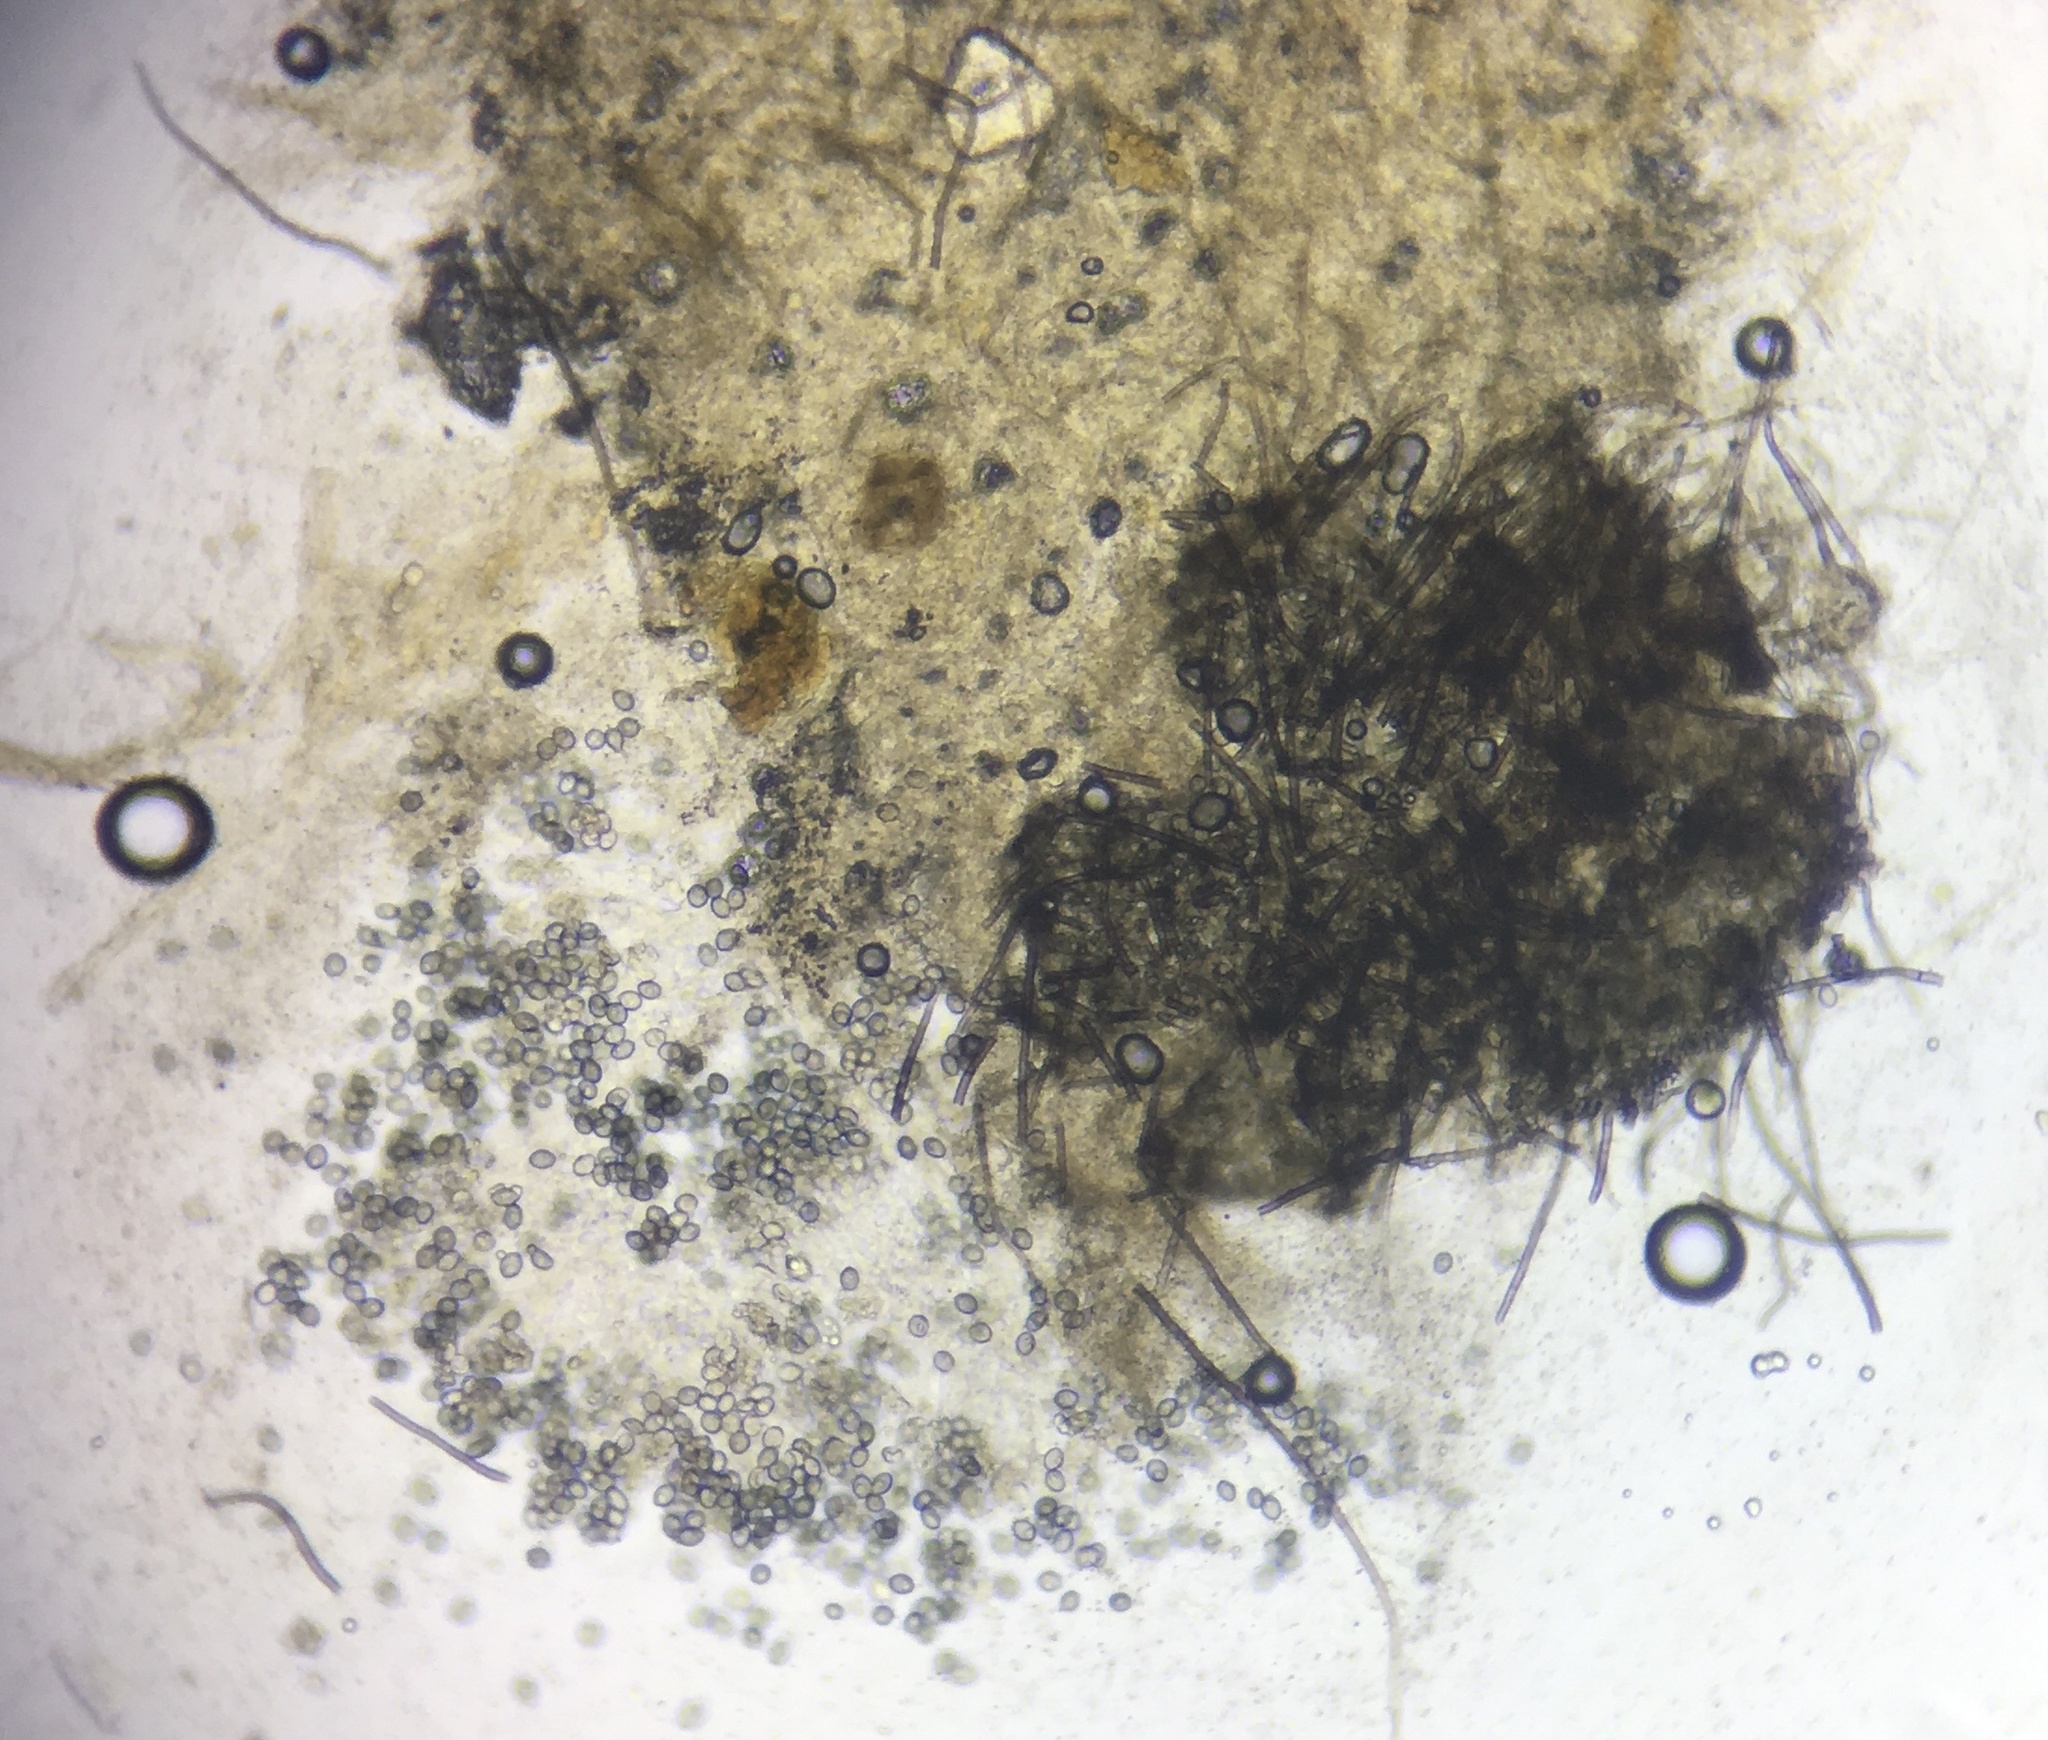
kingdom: Fungi
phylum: Ascomycota
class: Sordariomycetes
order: Sordariales
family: Chaetomiaceae
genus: Chaetomium
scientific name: Chaetomium globosum
